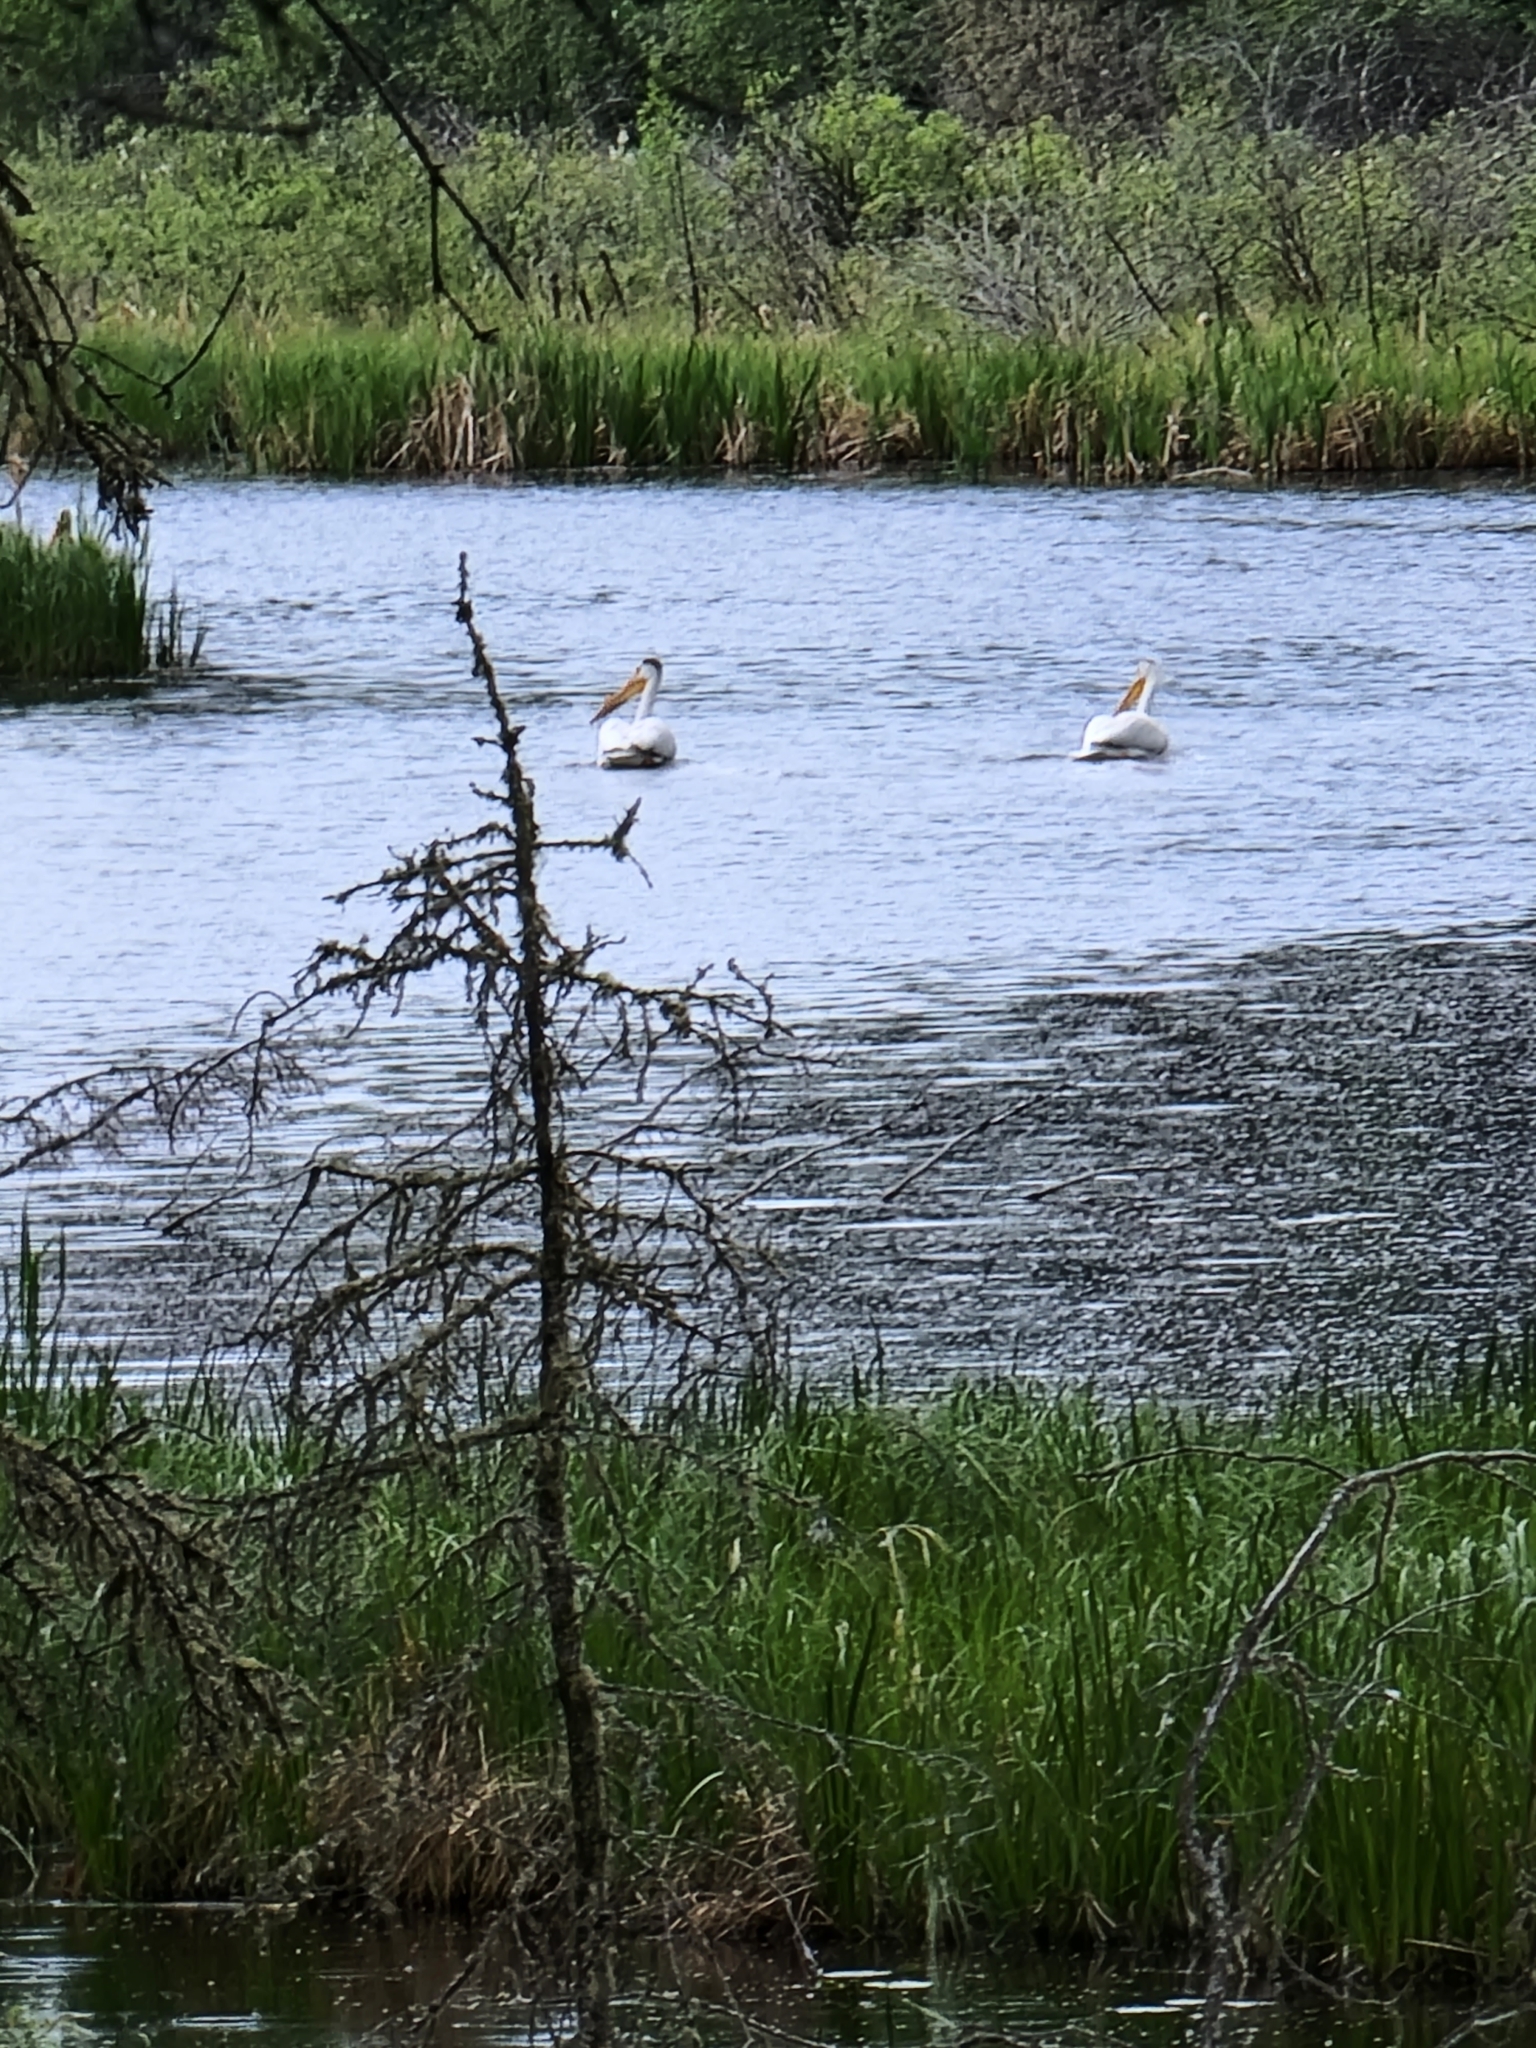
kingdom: Animalia
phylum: Chordata
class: Aves
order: Pelecaniformes
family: Pelecanidae
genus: Pelecanus
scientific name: Pelecanus erythrorhynchos
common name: American white pelican
